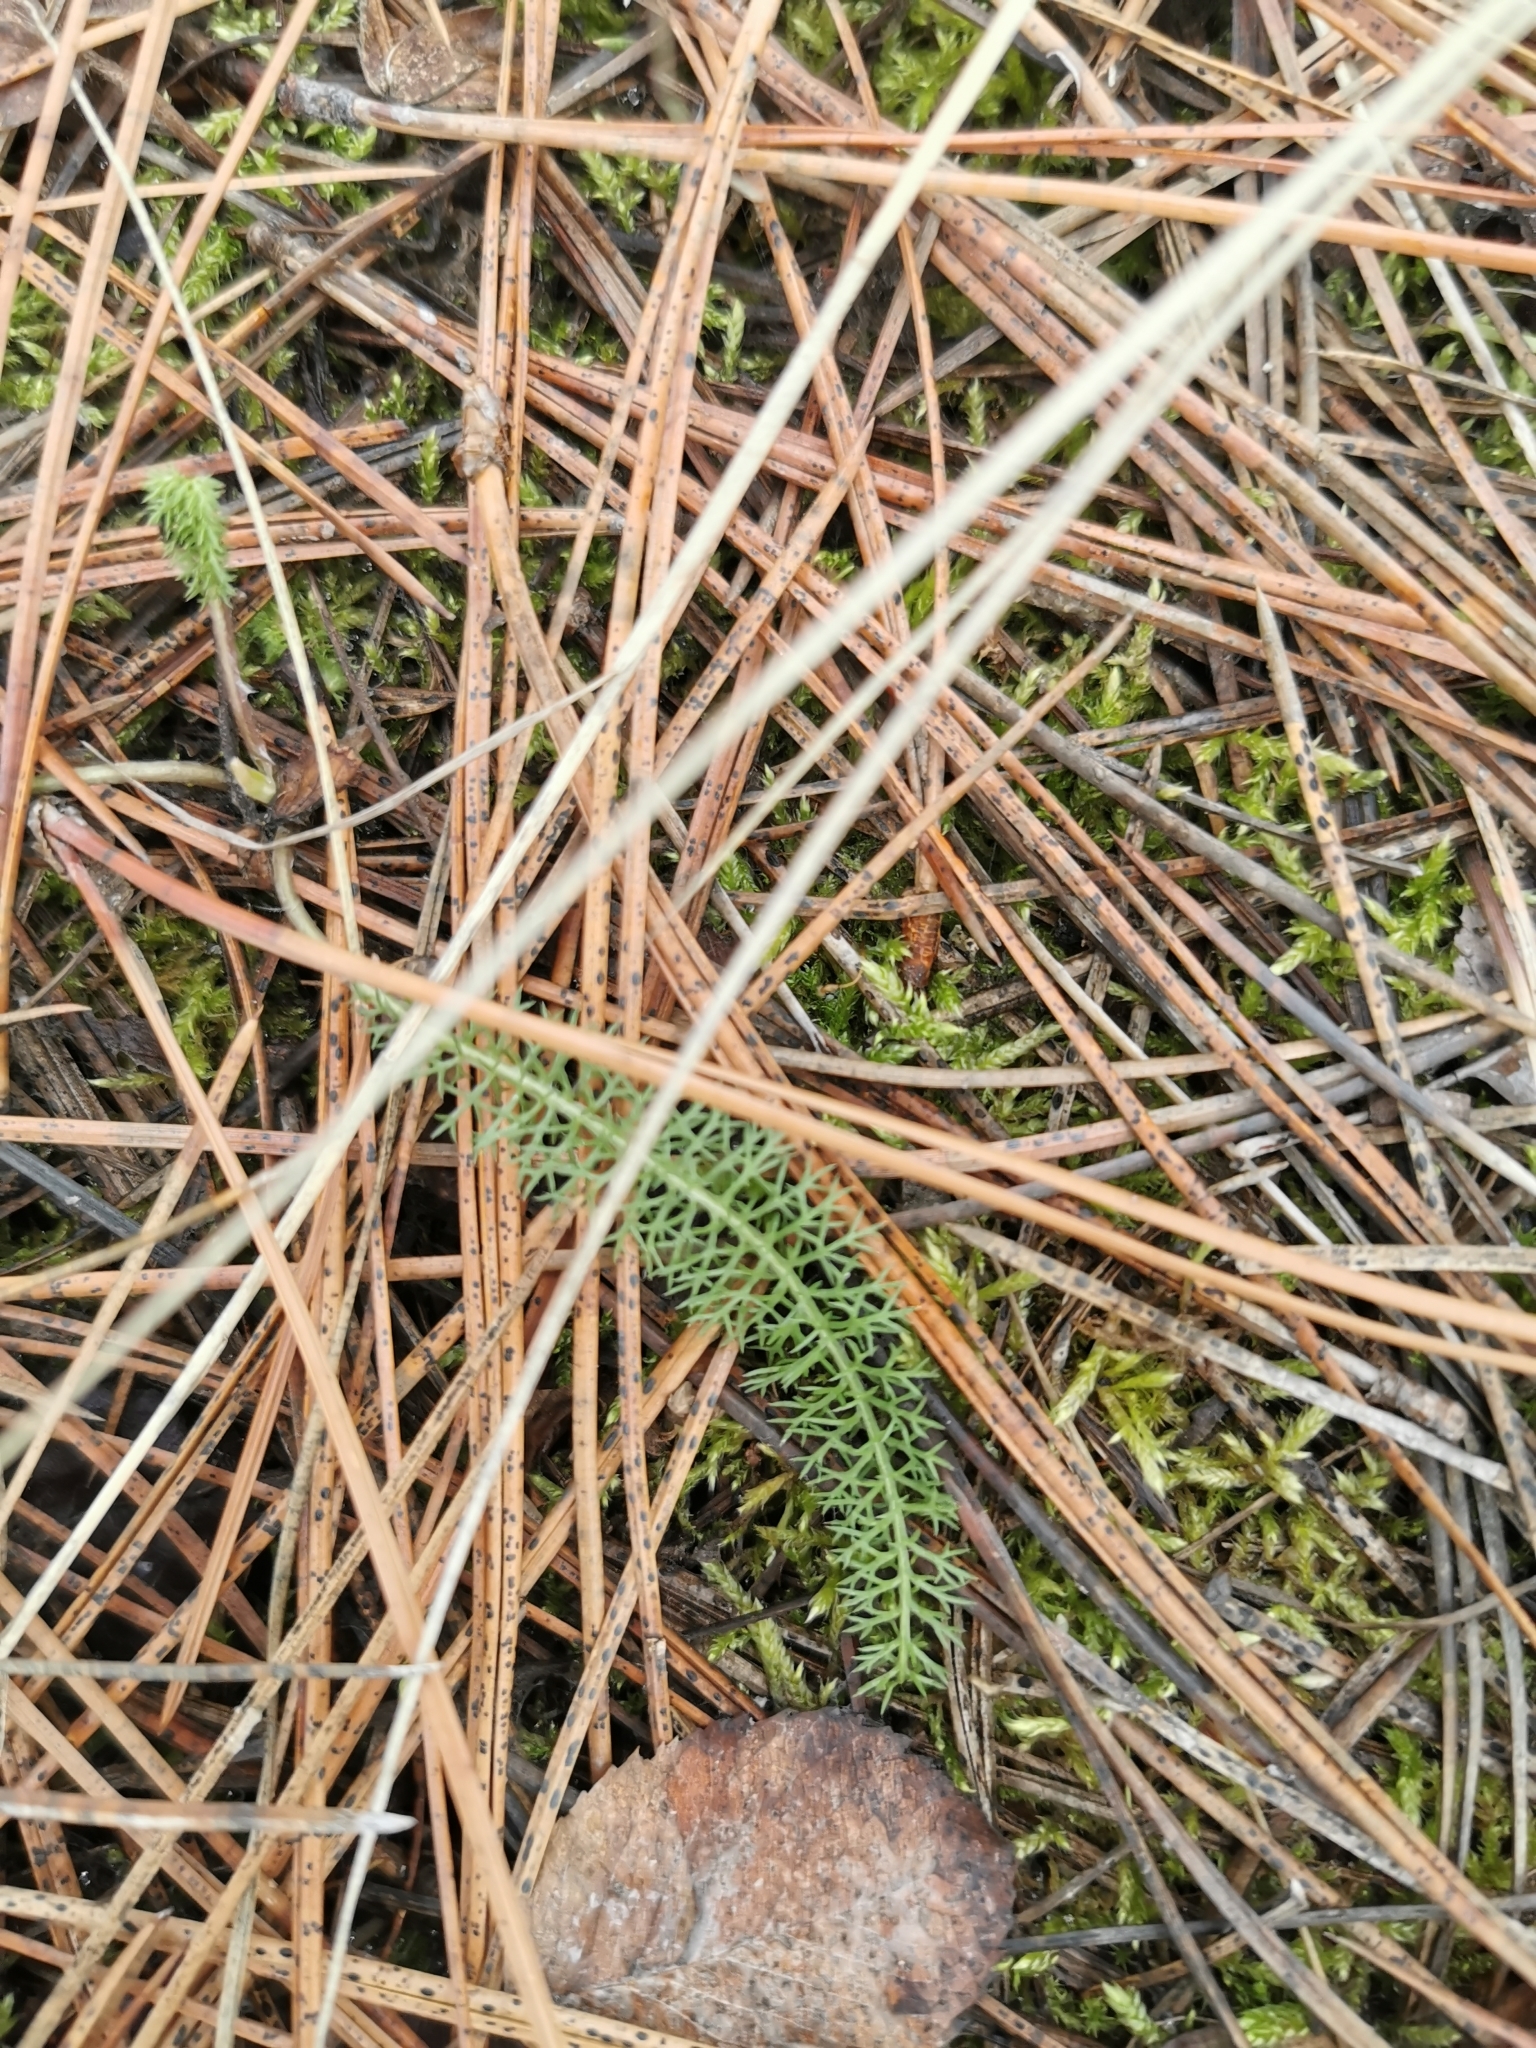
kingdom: Plantae
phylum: Tracheophyta
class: Magnoliopsida
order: Asterales
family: Asteraceae
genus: Achillea
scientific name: Achillea millefolium
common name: Yarrow
